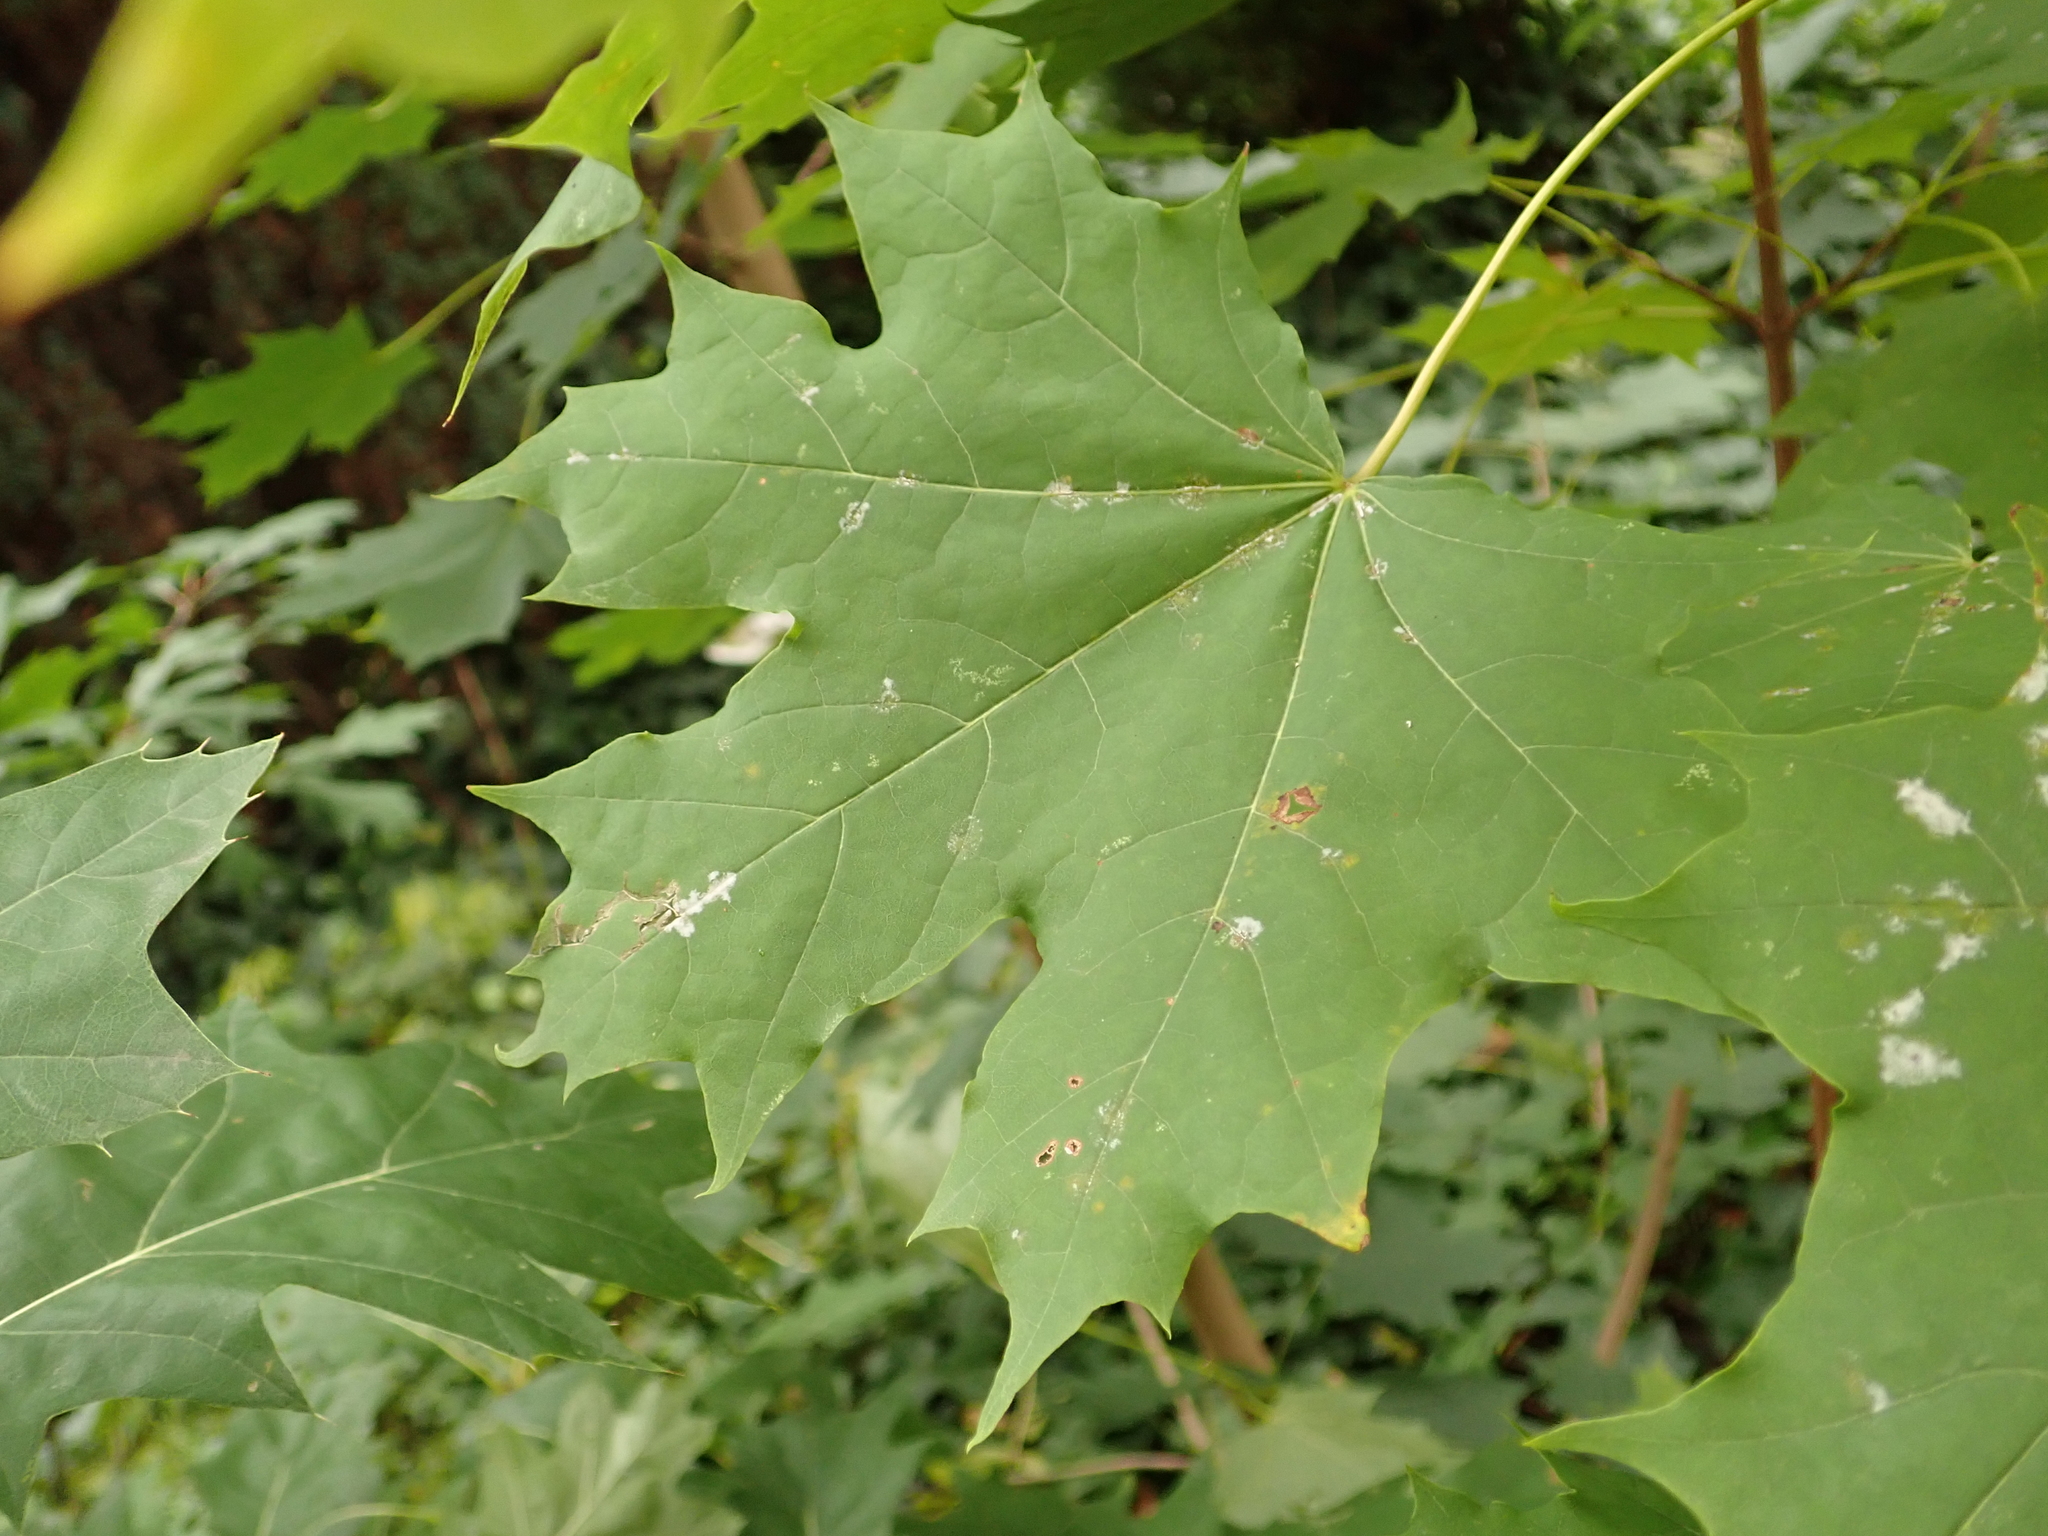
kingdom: Plantae
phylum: Tracheophyta
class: Magnoliopsida
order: Sapindales
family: Sapindaceae
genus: Acer
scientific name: Acer platanoides
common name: Norway maple
